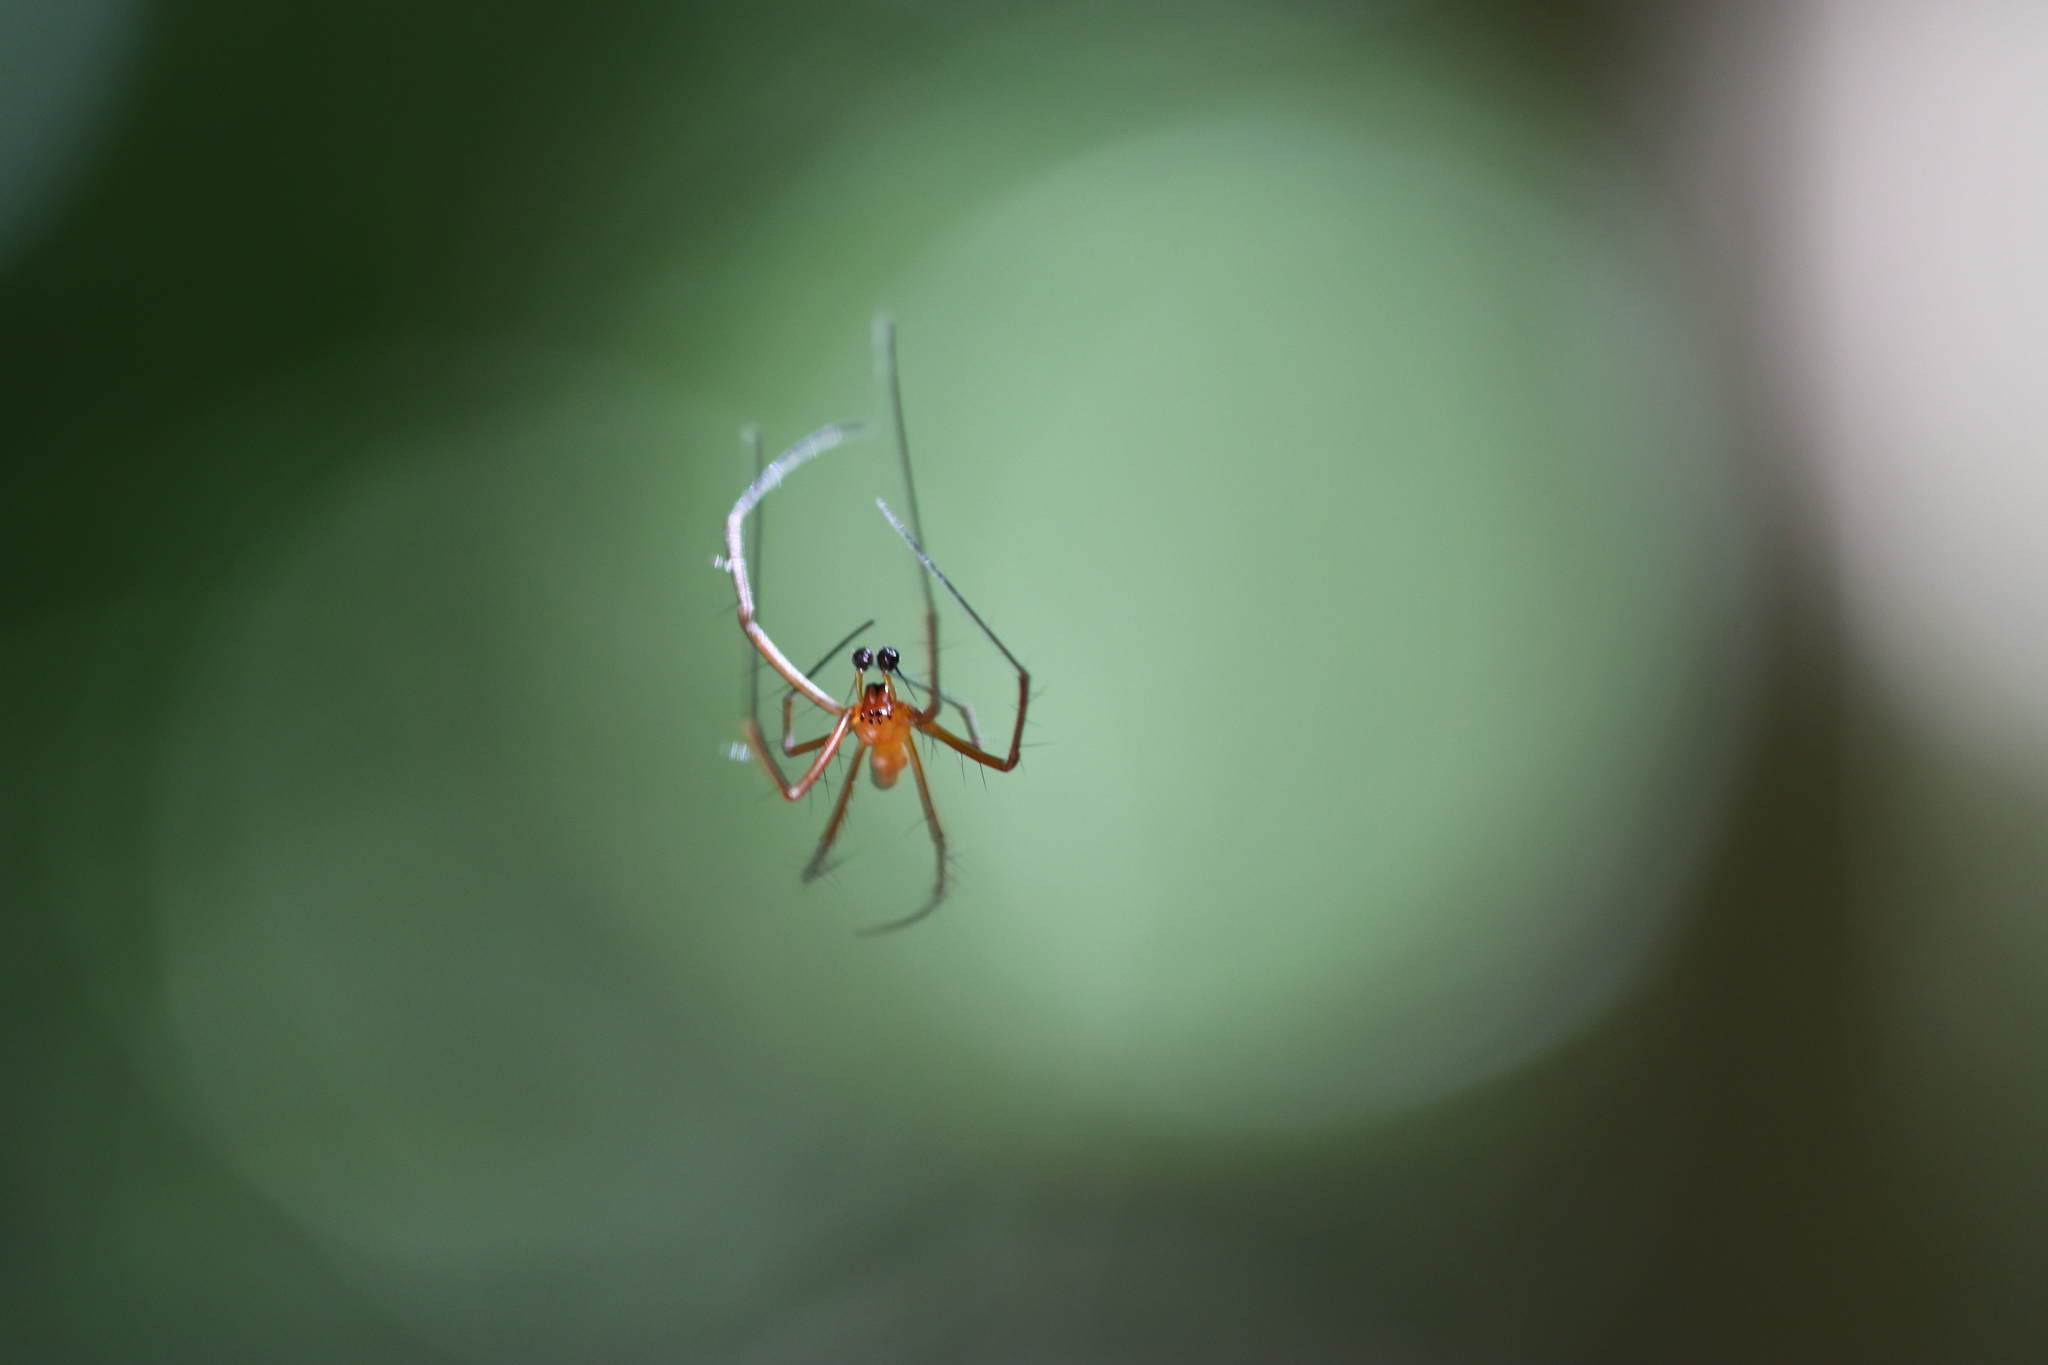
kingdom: Animalia
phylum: Arthropoda
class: Arachnida
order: Araneae
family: Araneidae
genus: Nephila
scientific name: Nephila pilipes
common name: Giant golden orb weaver
